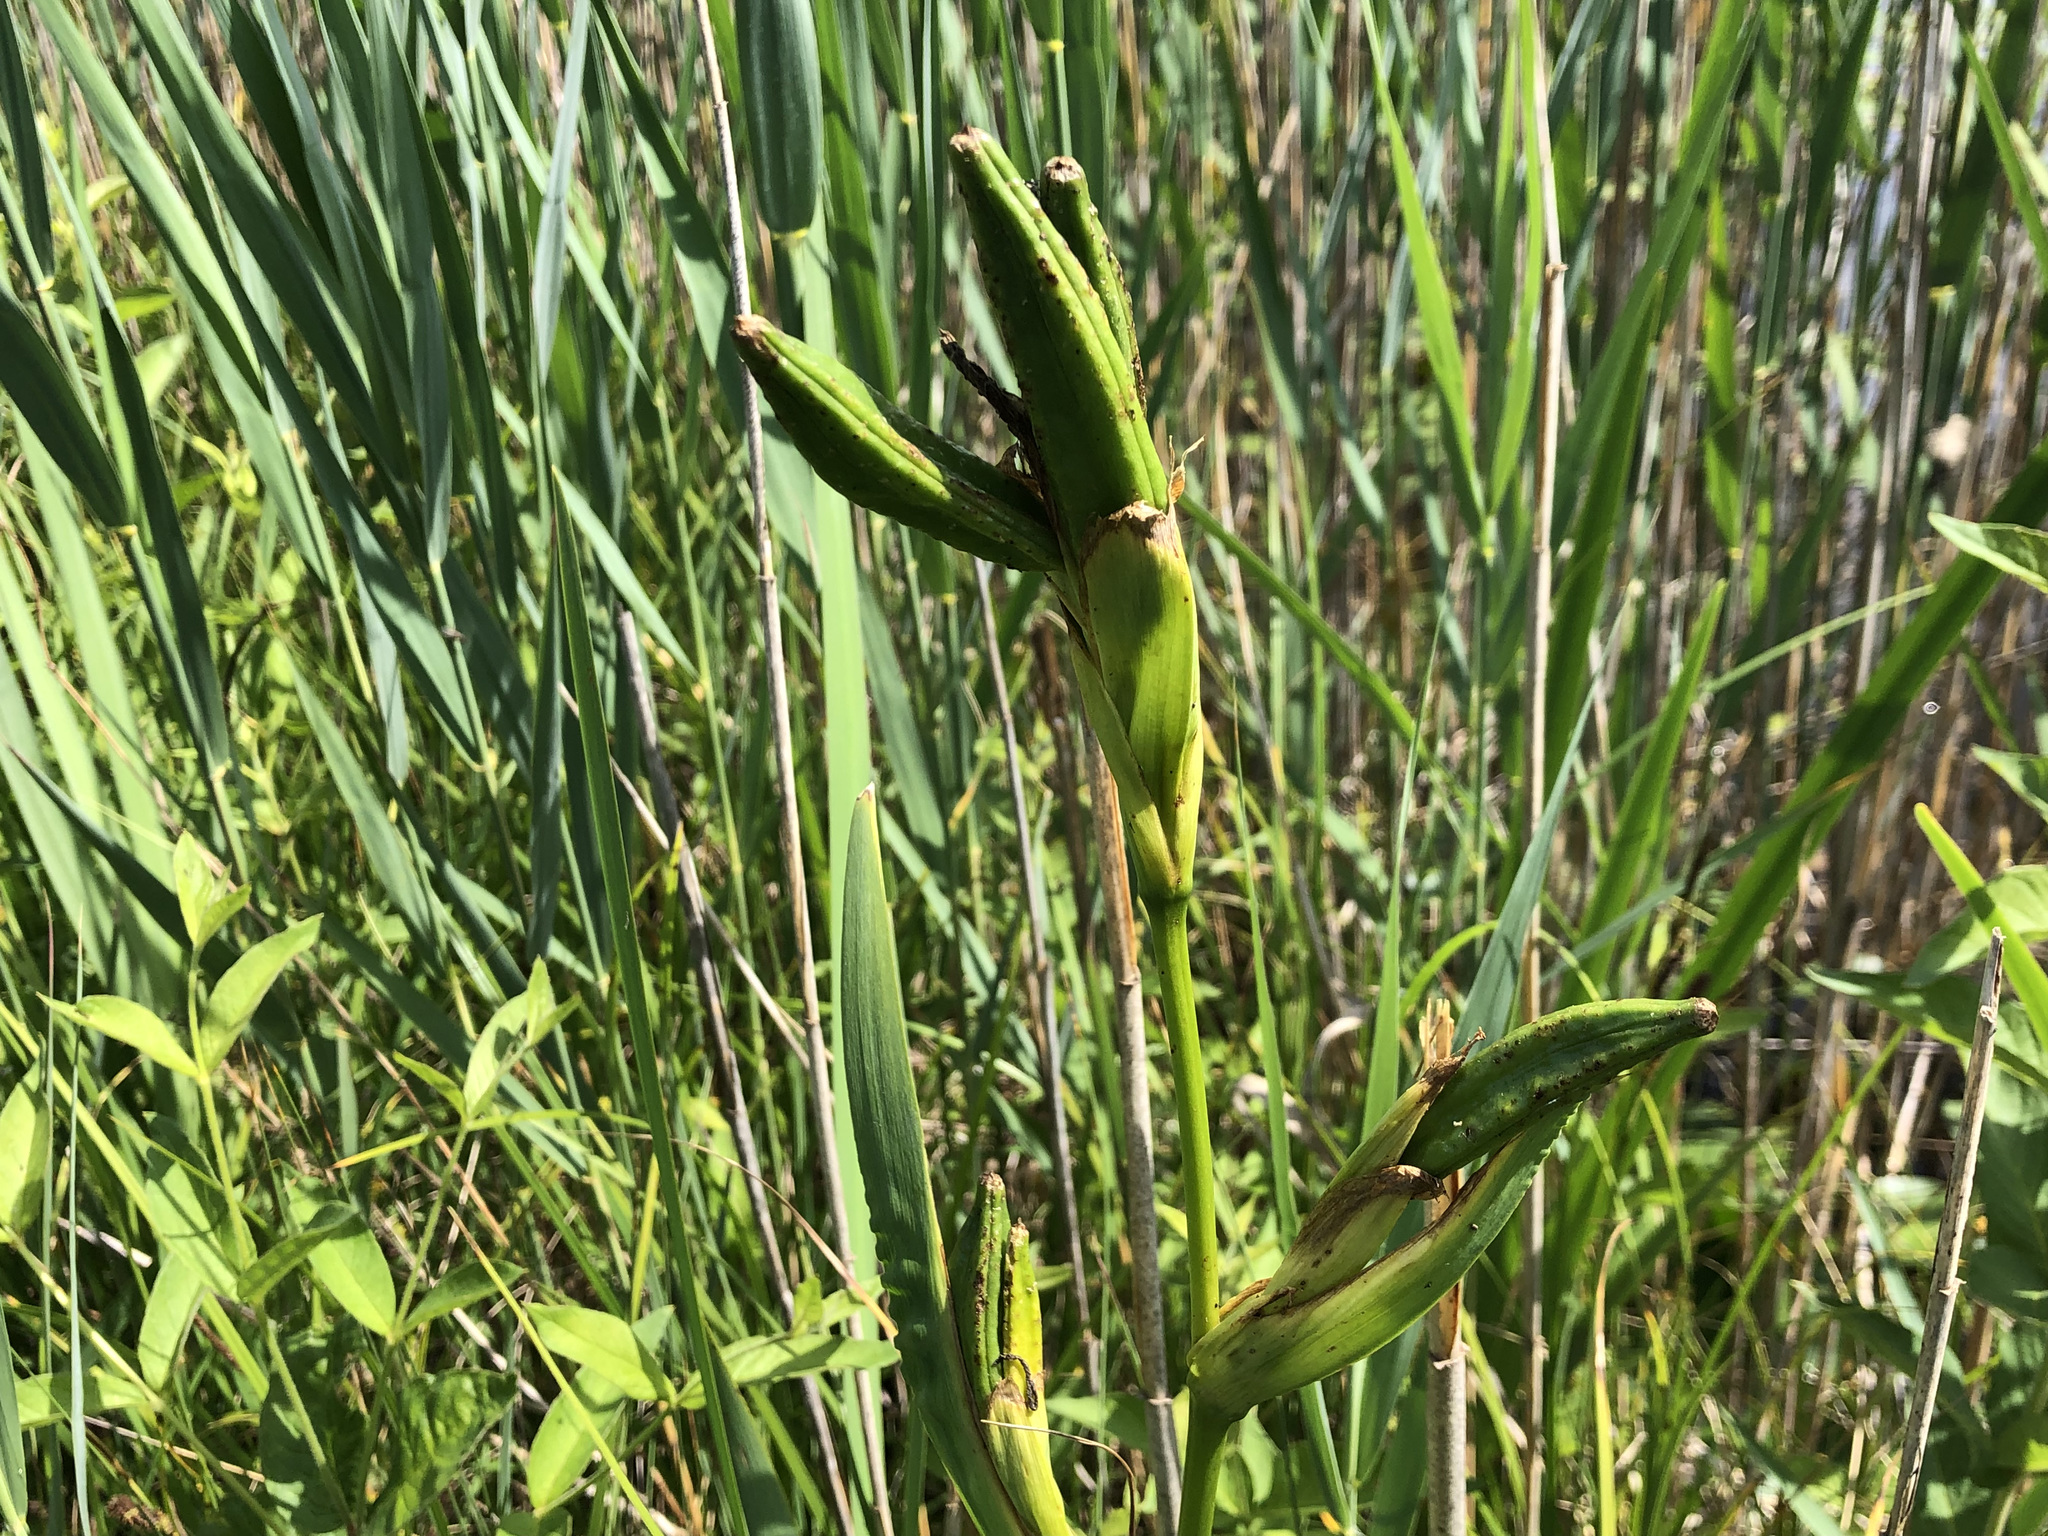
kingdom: Plantae
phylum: Tracheophyta
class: Liliopsida
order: Asparagales
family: Iridaceae
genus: Iris
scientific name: Iris pseudacorus
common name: Yellow flag
